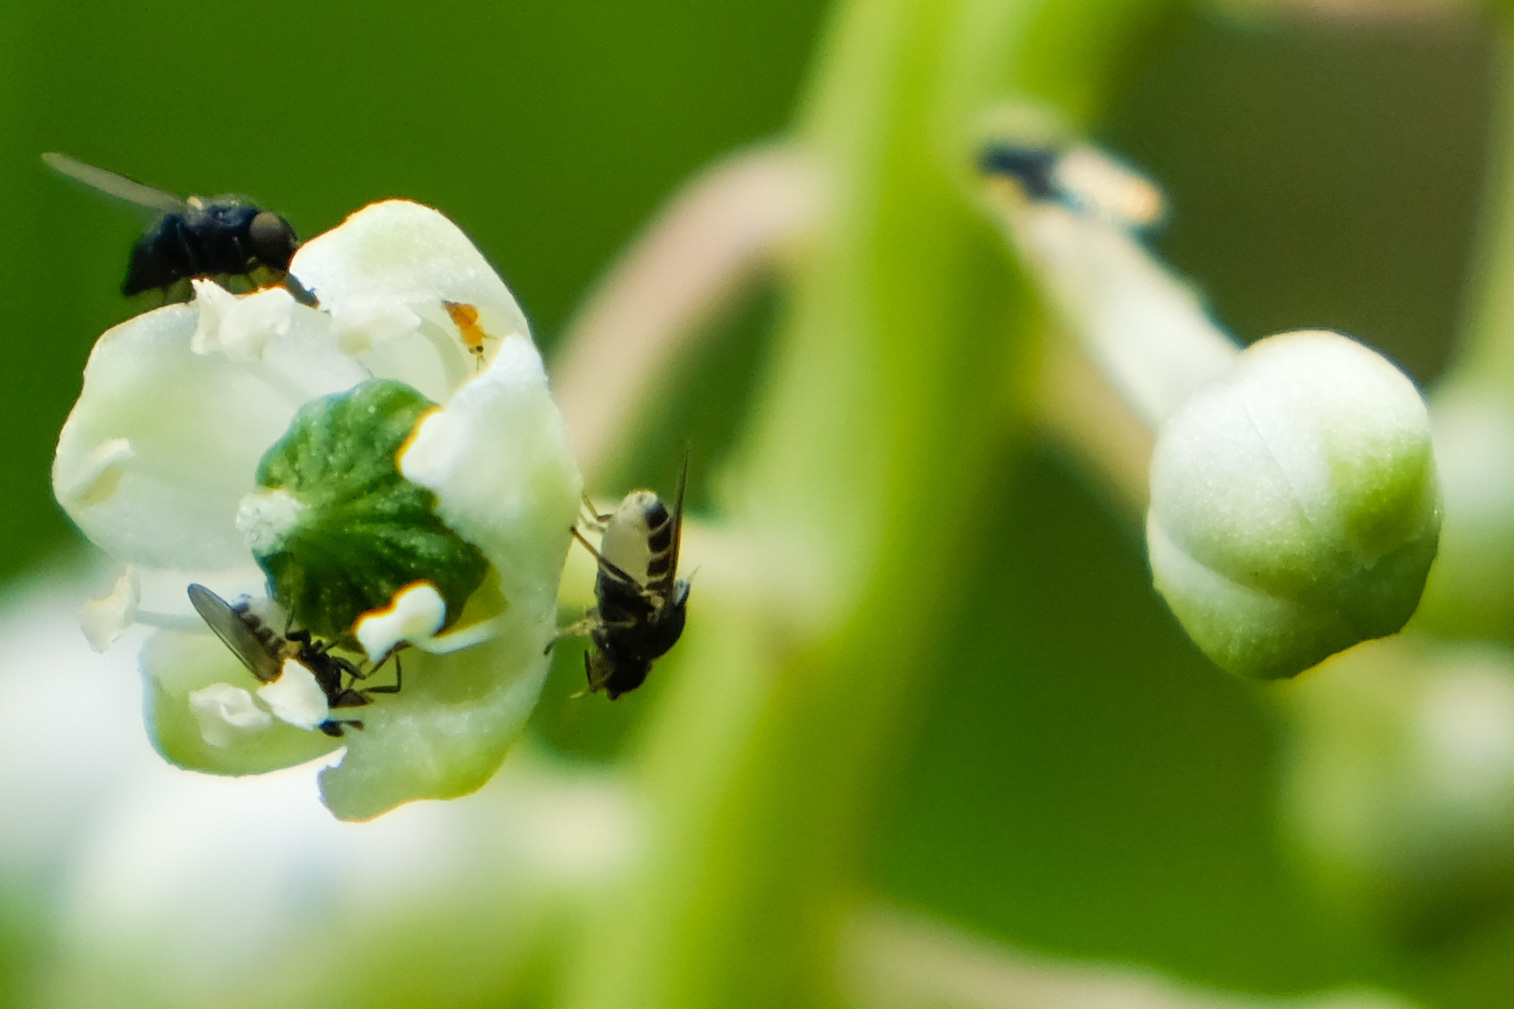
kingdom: Plantae
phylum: Tracheophyta
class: Magnoliopsida
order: Caryophyllales
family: Phytolaccaceae
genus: Phytolacca
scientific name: Phytolacca americana
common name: American pokeweed
